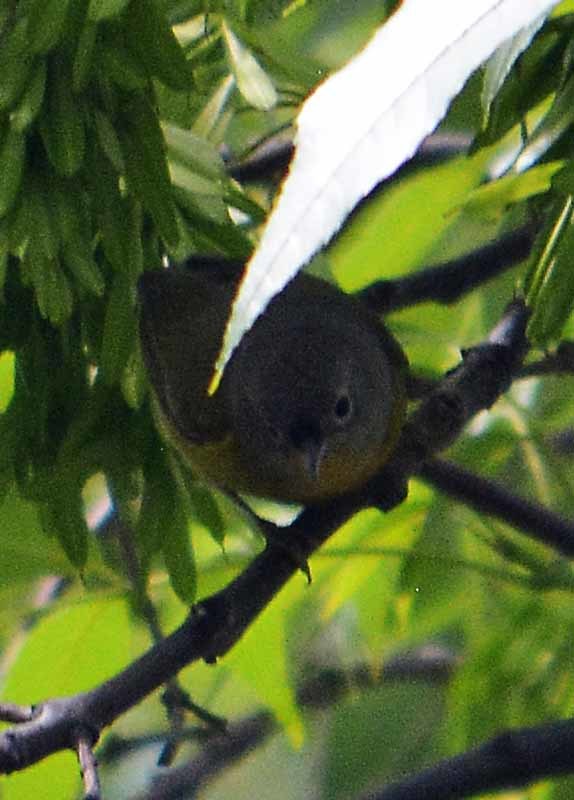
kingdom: Animalia
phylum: Chordata
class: Aves
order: Passeriformes
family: Parulidae
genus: Leiothlypis
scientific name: Leiothlypis ruficapilla
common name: Nashville warbler
